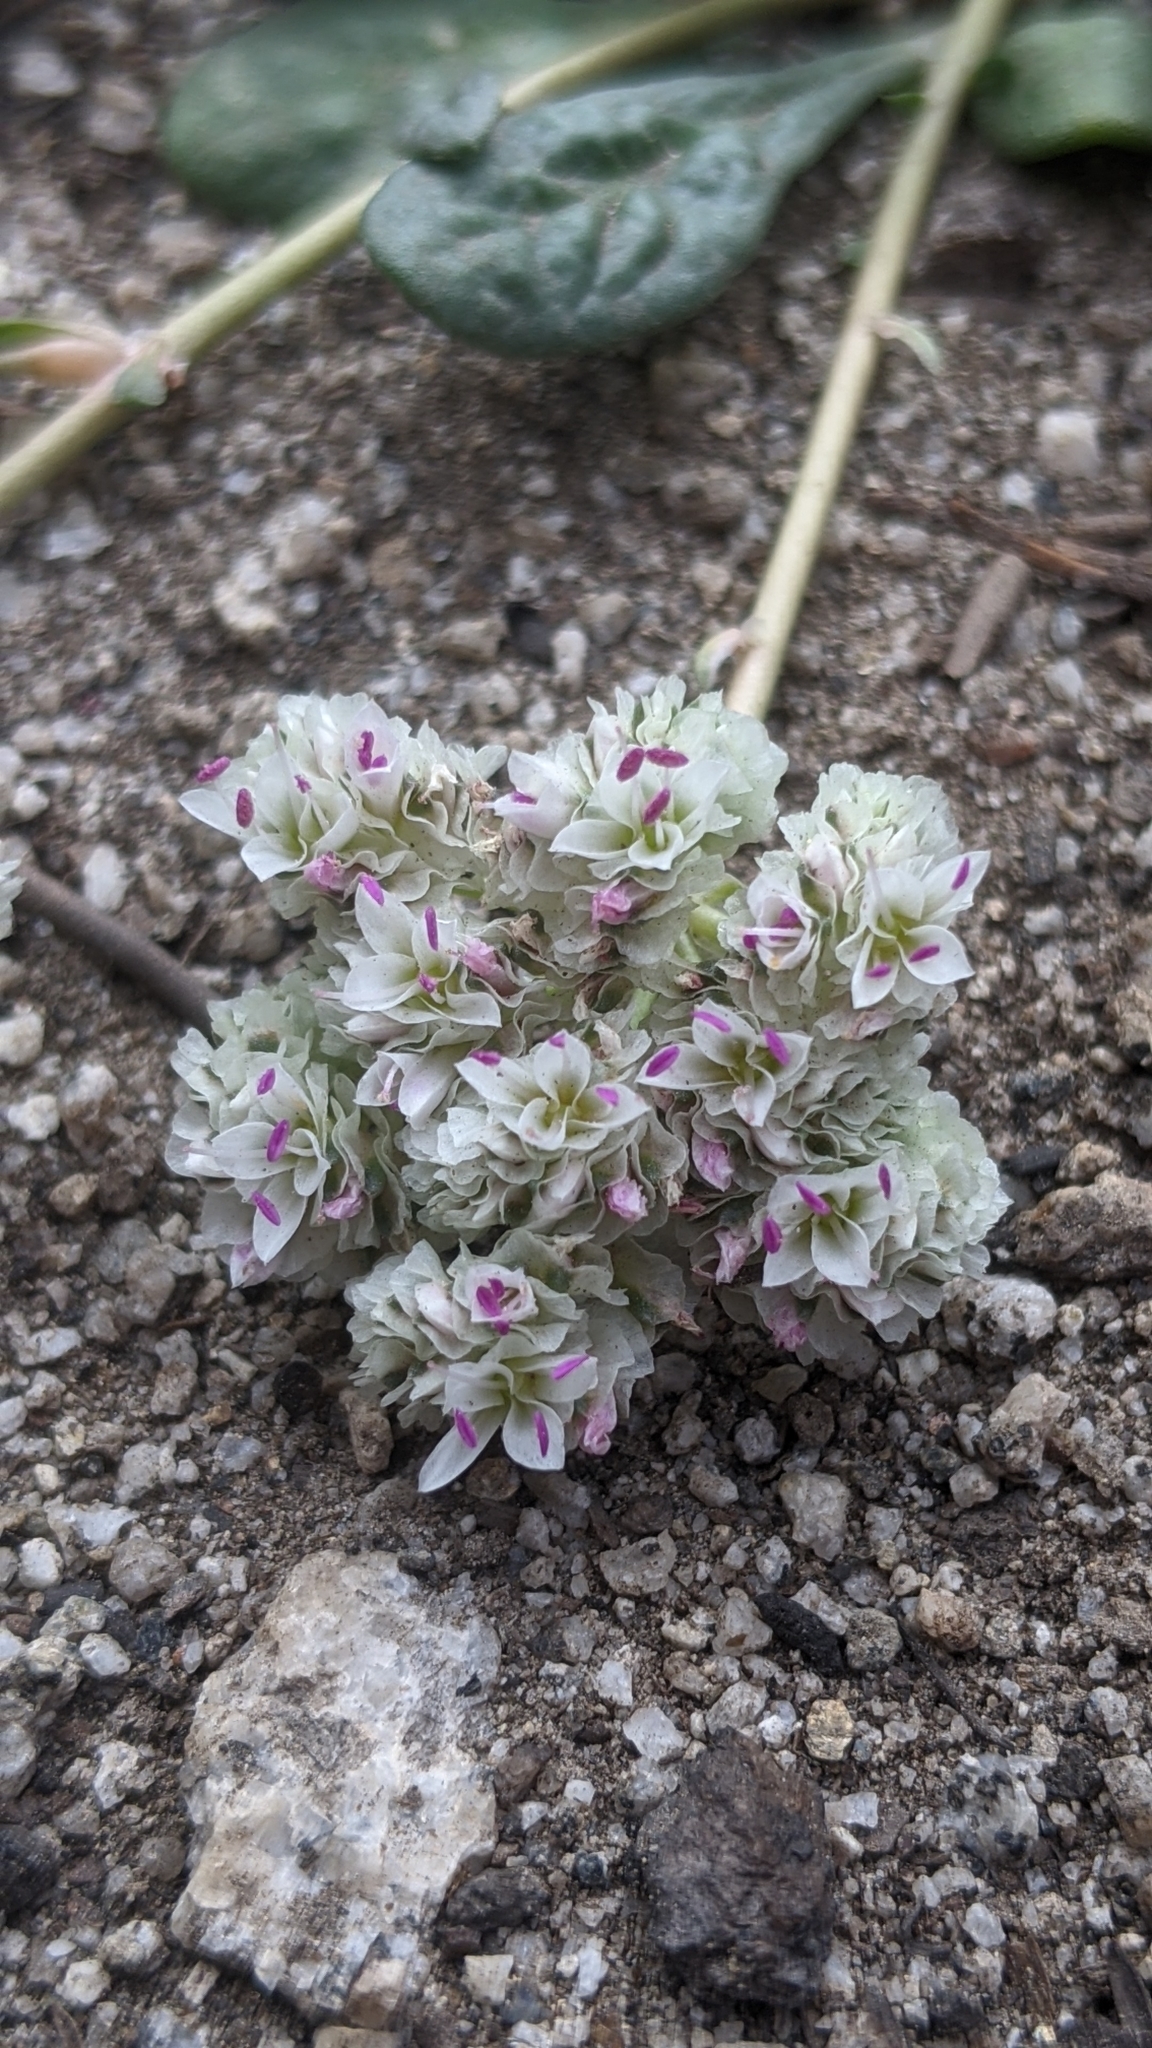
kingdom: Plantae
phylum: Tracheophyta
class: Magnoliopsida
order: Caryophyllales
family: Montiaceae
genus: Calyptridium
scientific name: Calyptridium monospermum
